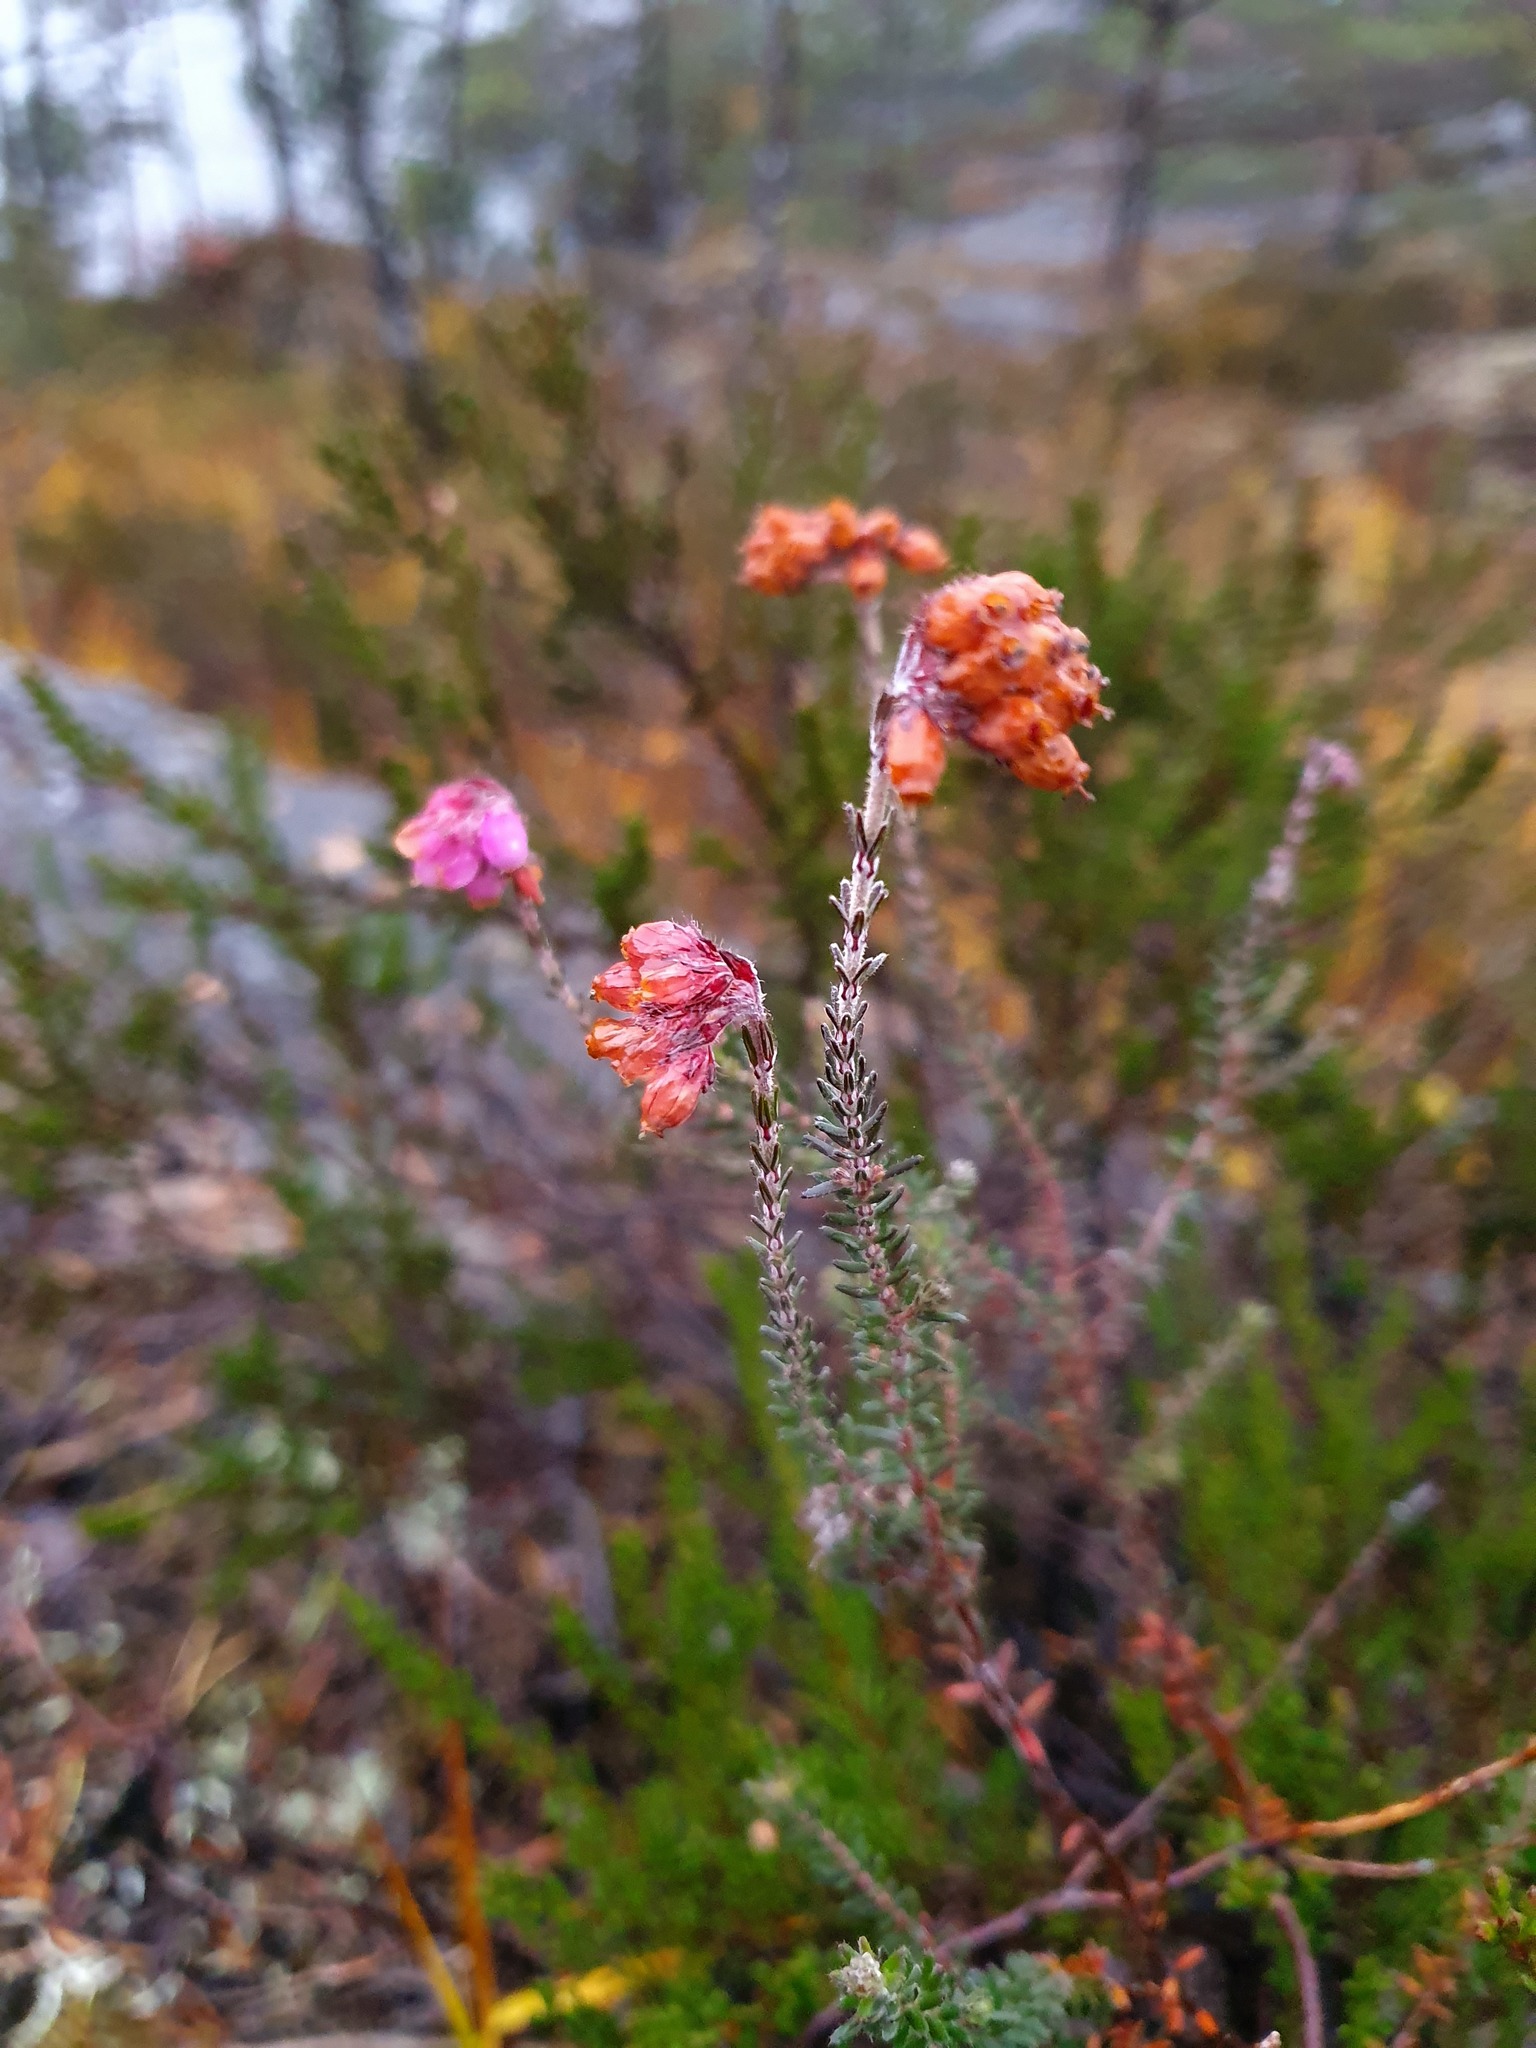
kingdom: Plantae
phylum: Tracheophyta
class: Magnoliopsida
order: Ericales
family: Ericaceae
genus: Erica
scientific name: Erica tetralix
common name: Cross-leaved heath
